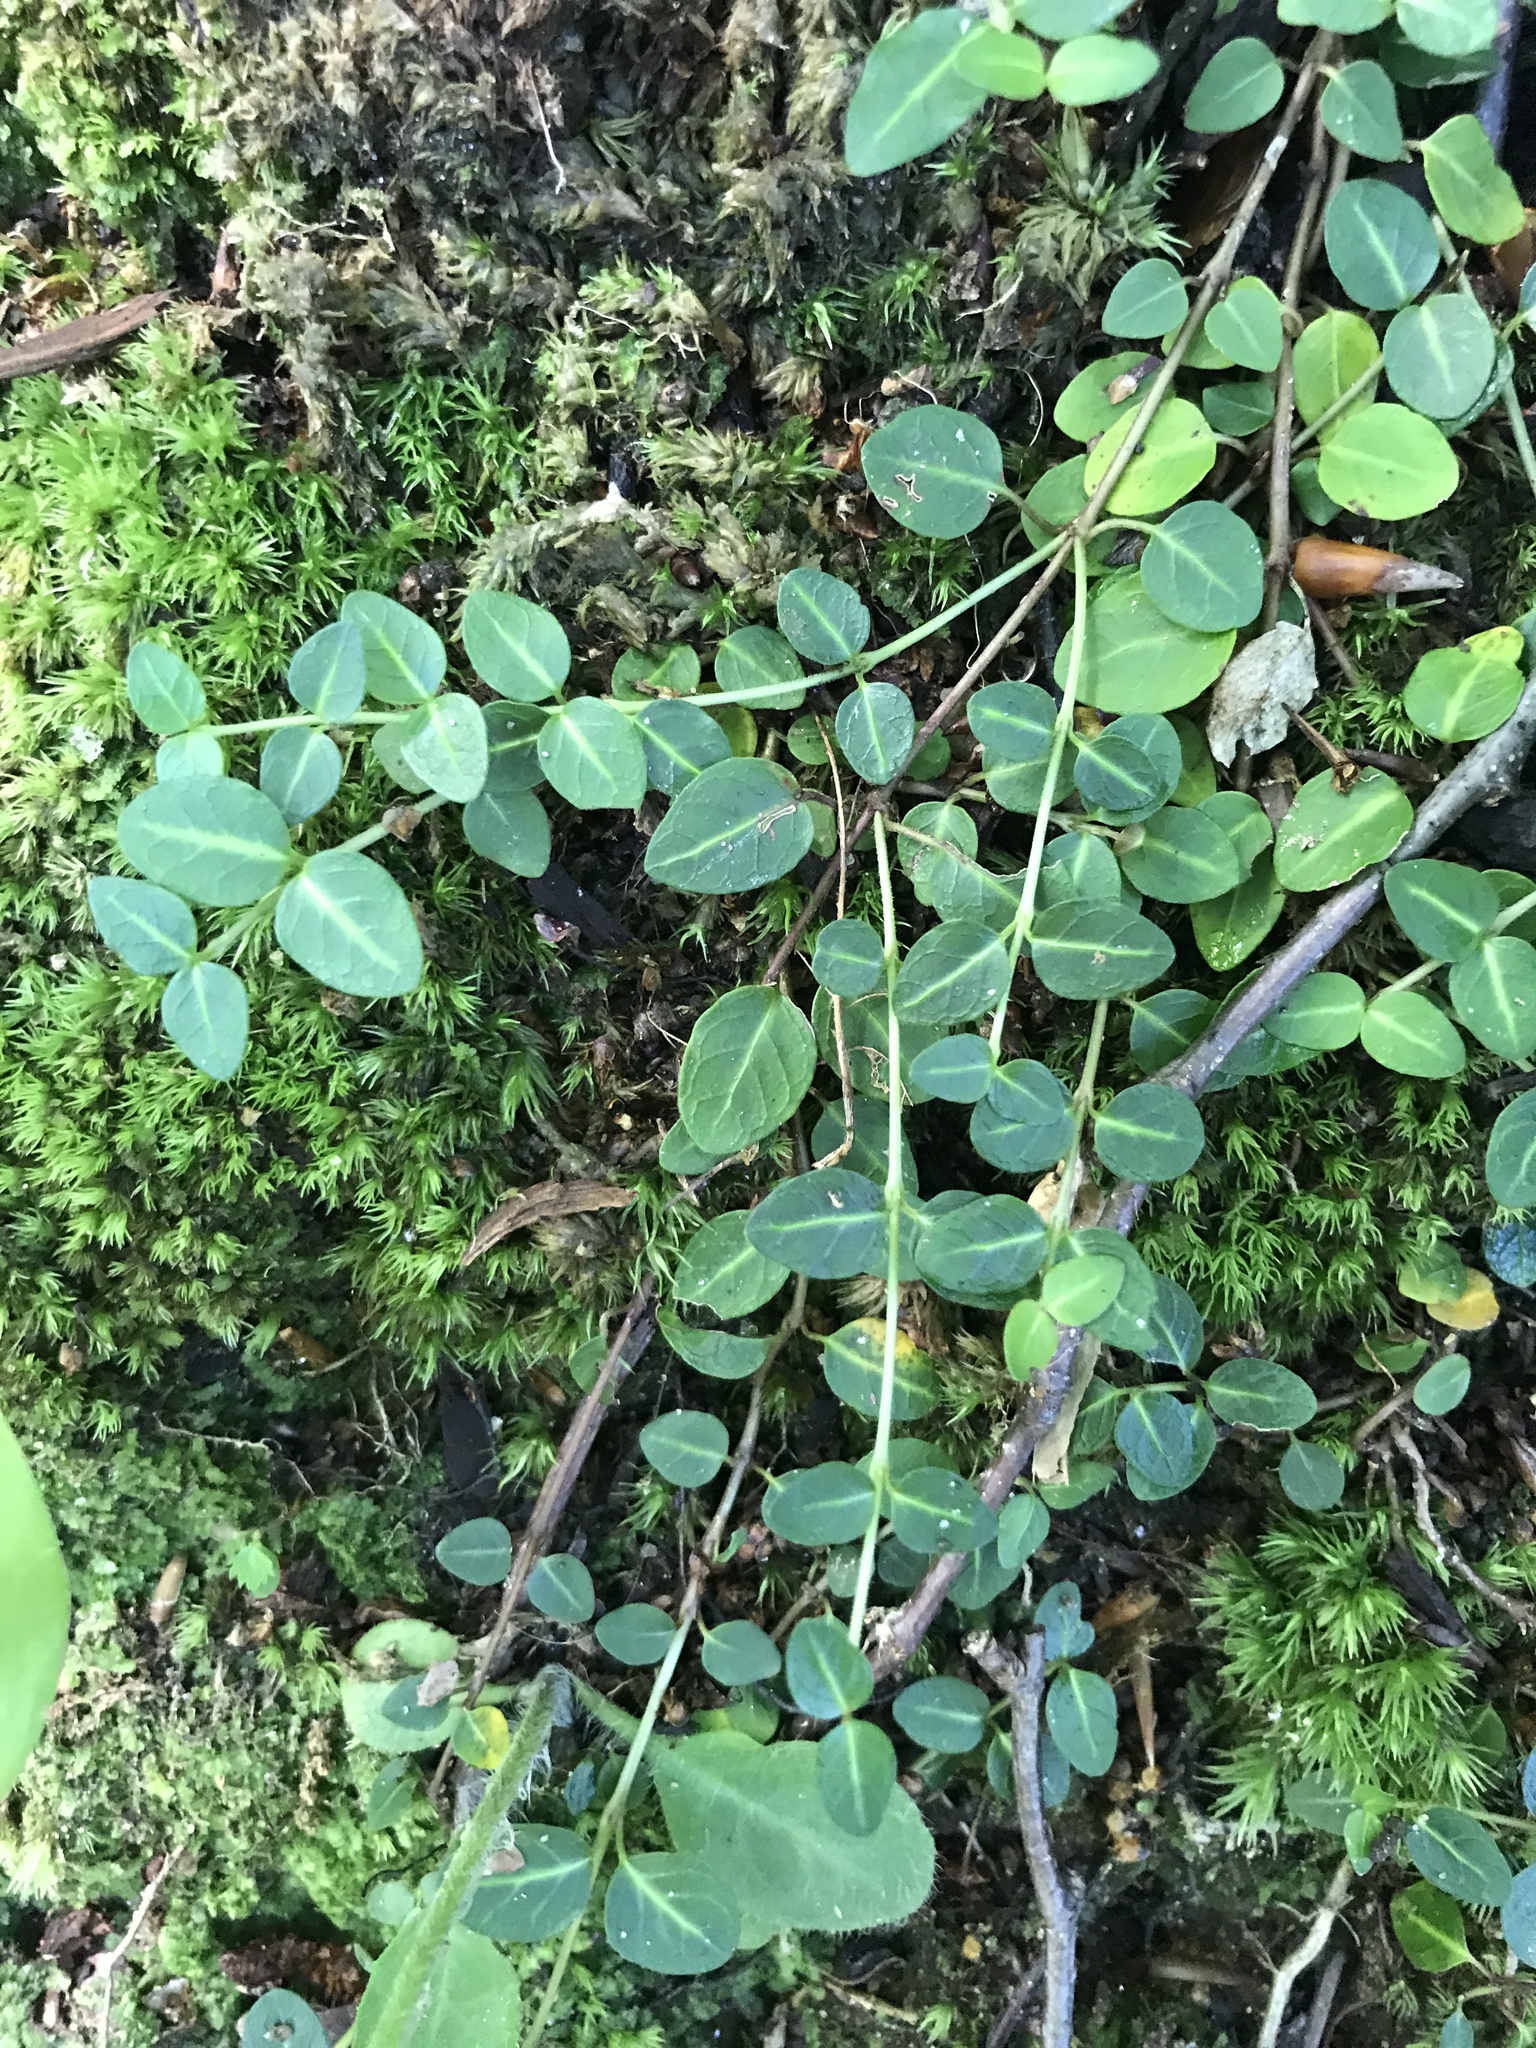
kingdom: Plantae
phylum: Tracheophyta
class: Magnoliopsida
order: Gentianales
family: Rubiaceae
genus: Mitchella
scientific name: Mitchella repens
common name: Partridge-berry
